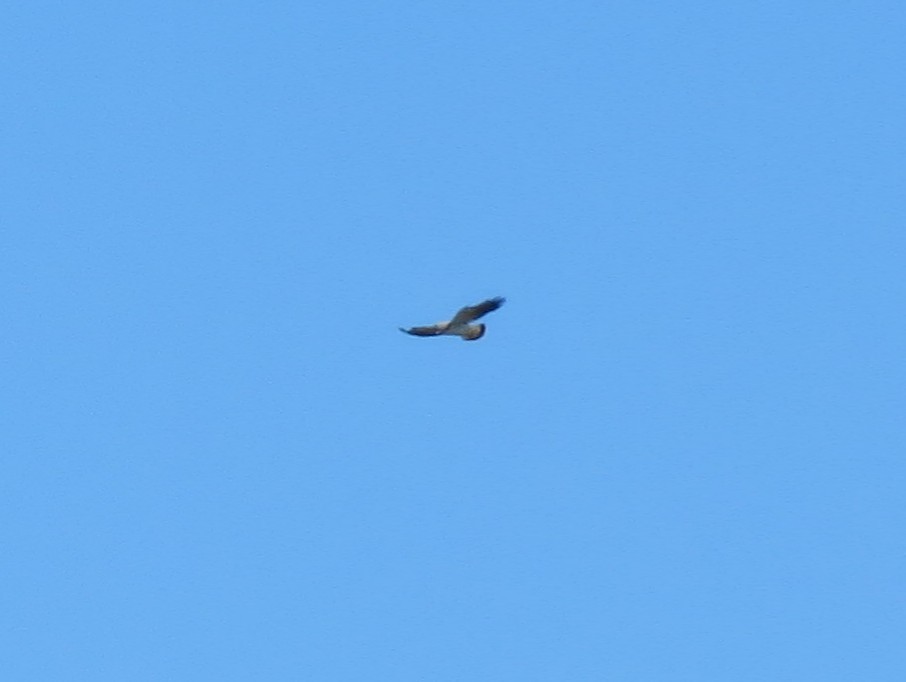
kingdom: Animalia
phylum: Chordata
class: Aves
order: Accipitriformes
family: Accipitridae
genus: Buteo
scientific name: Buteo albicaudatus
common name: White-tailed hawk
